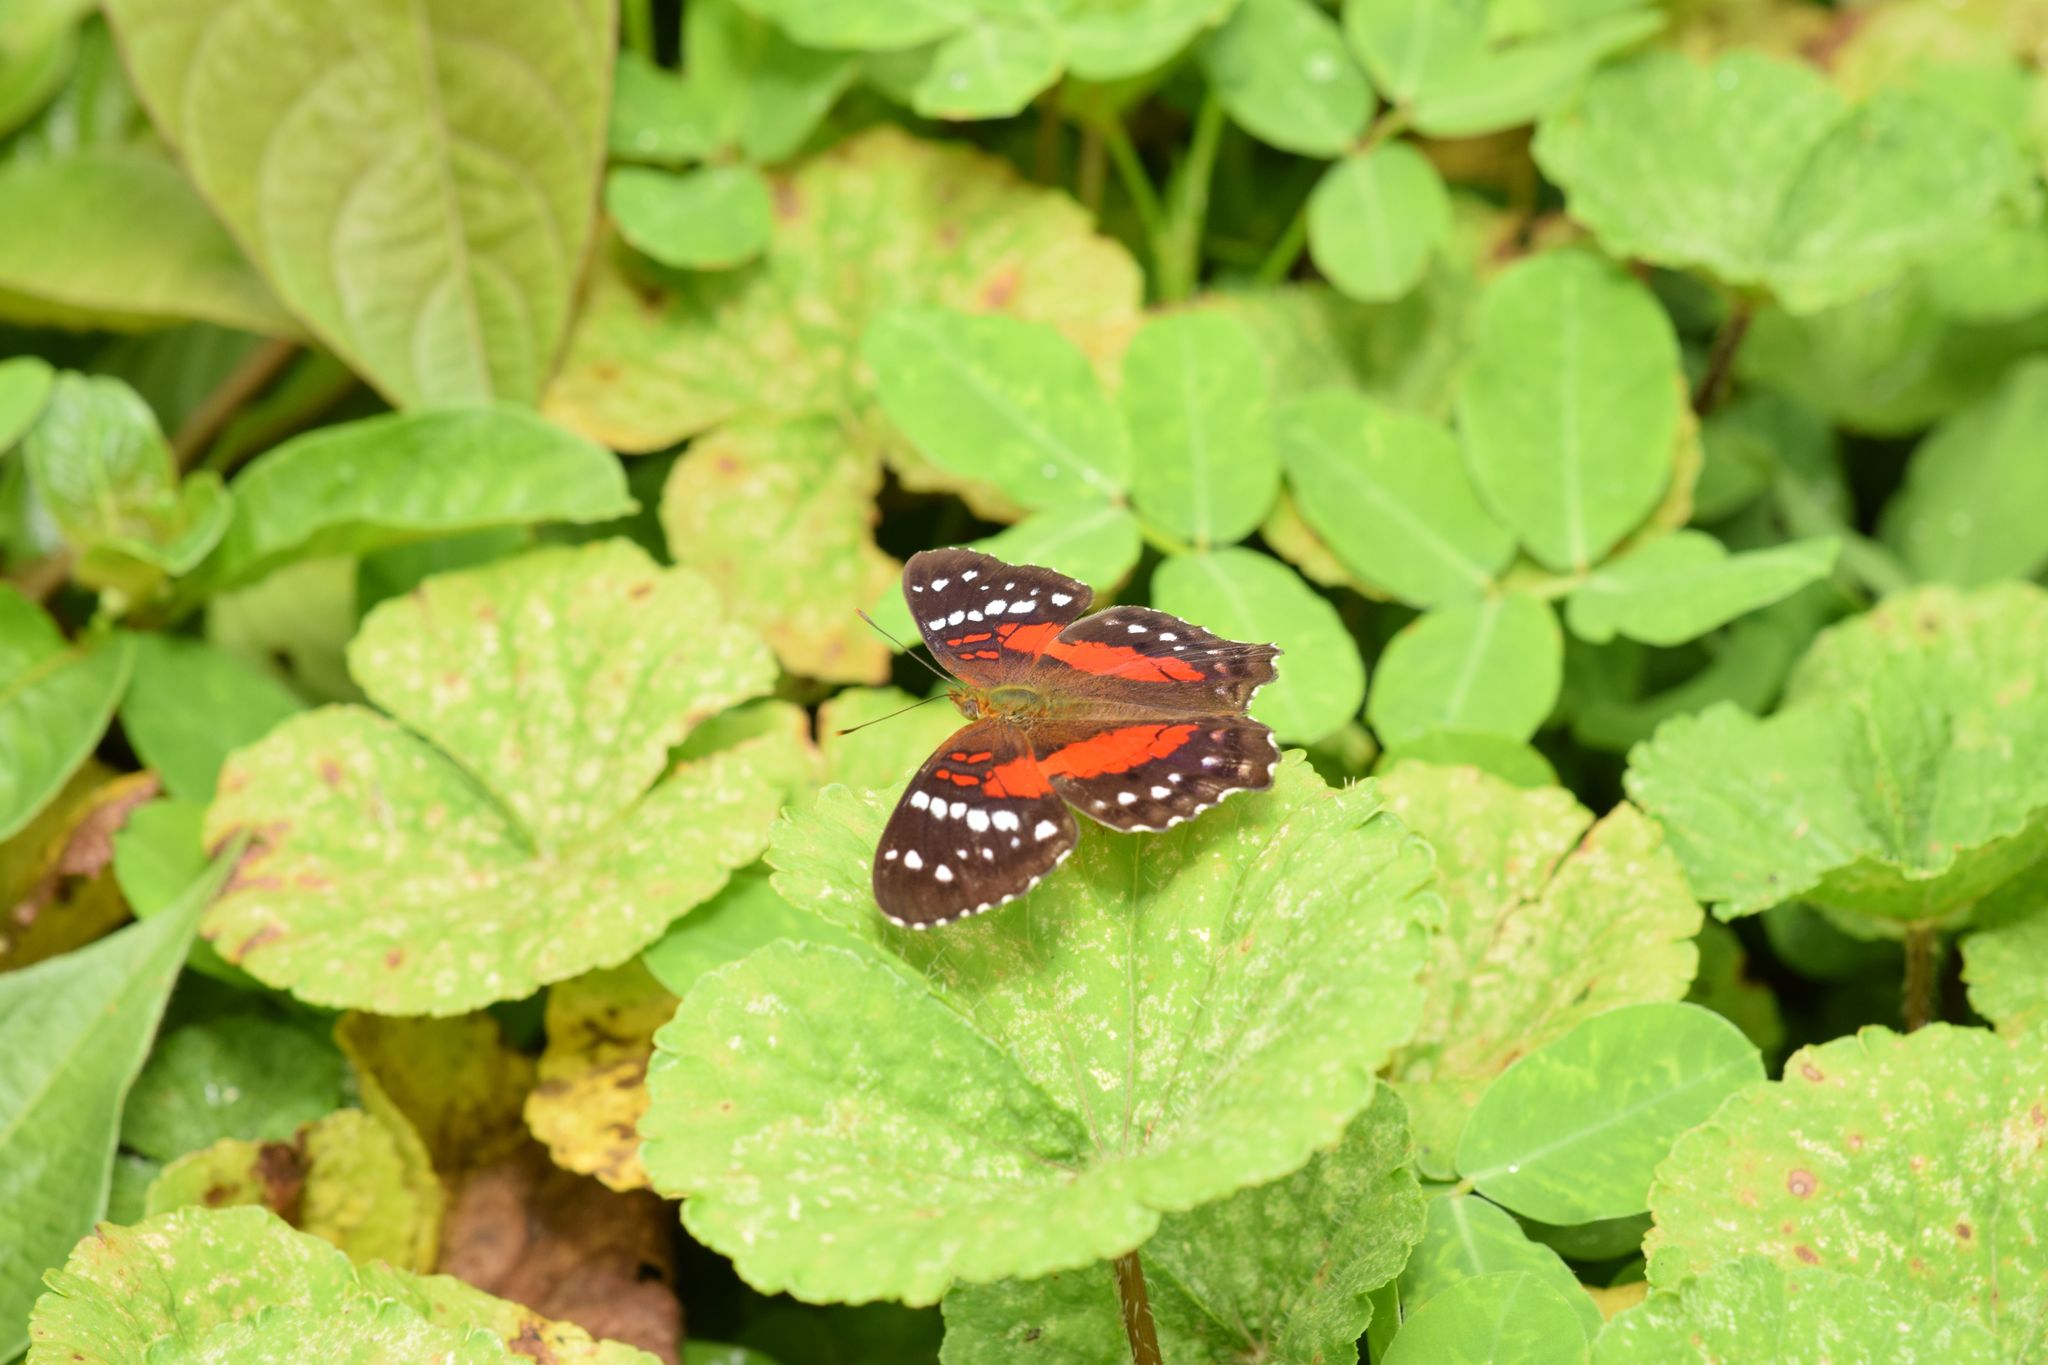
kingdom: Animalia
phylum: Arthropoda
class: Insecta
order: Lepidoptera
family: Nymphalidae
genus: Anartia
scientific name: Anartia amathea
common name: Red peacock
